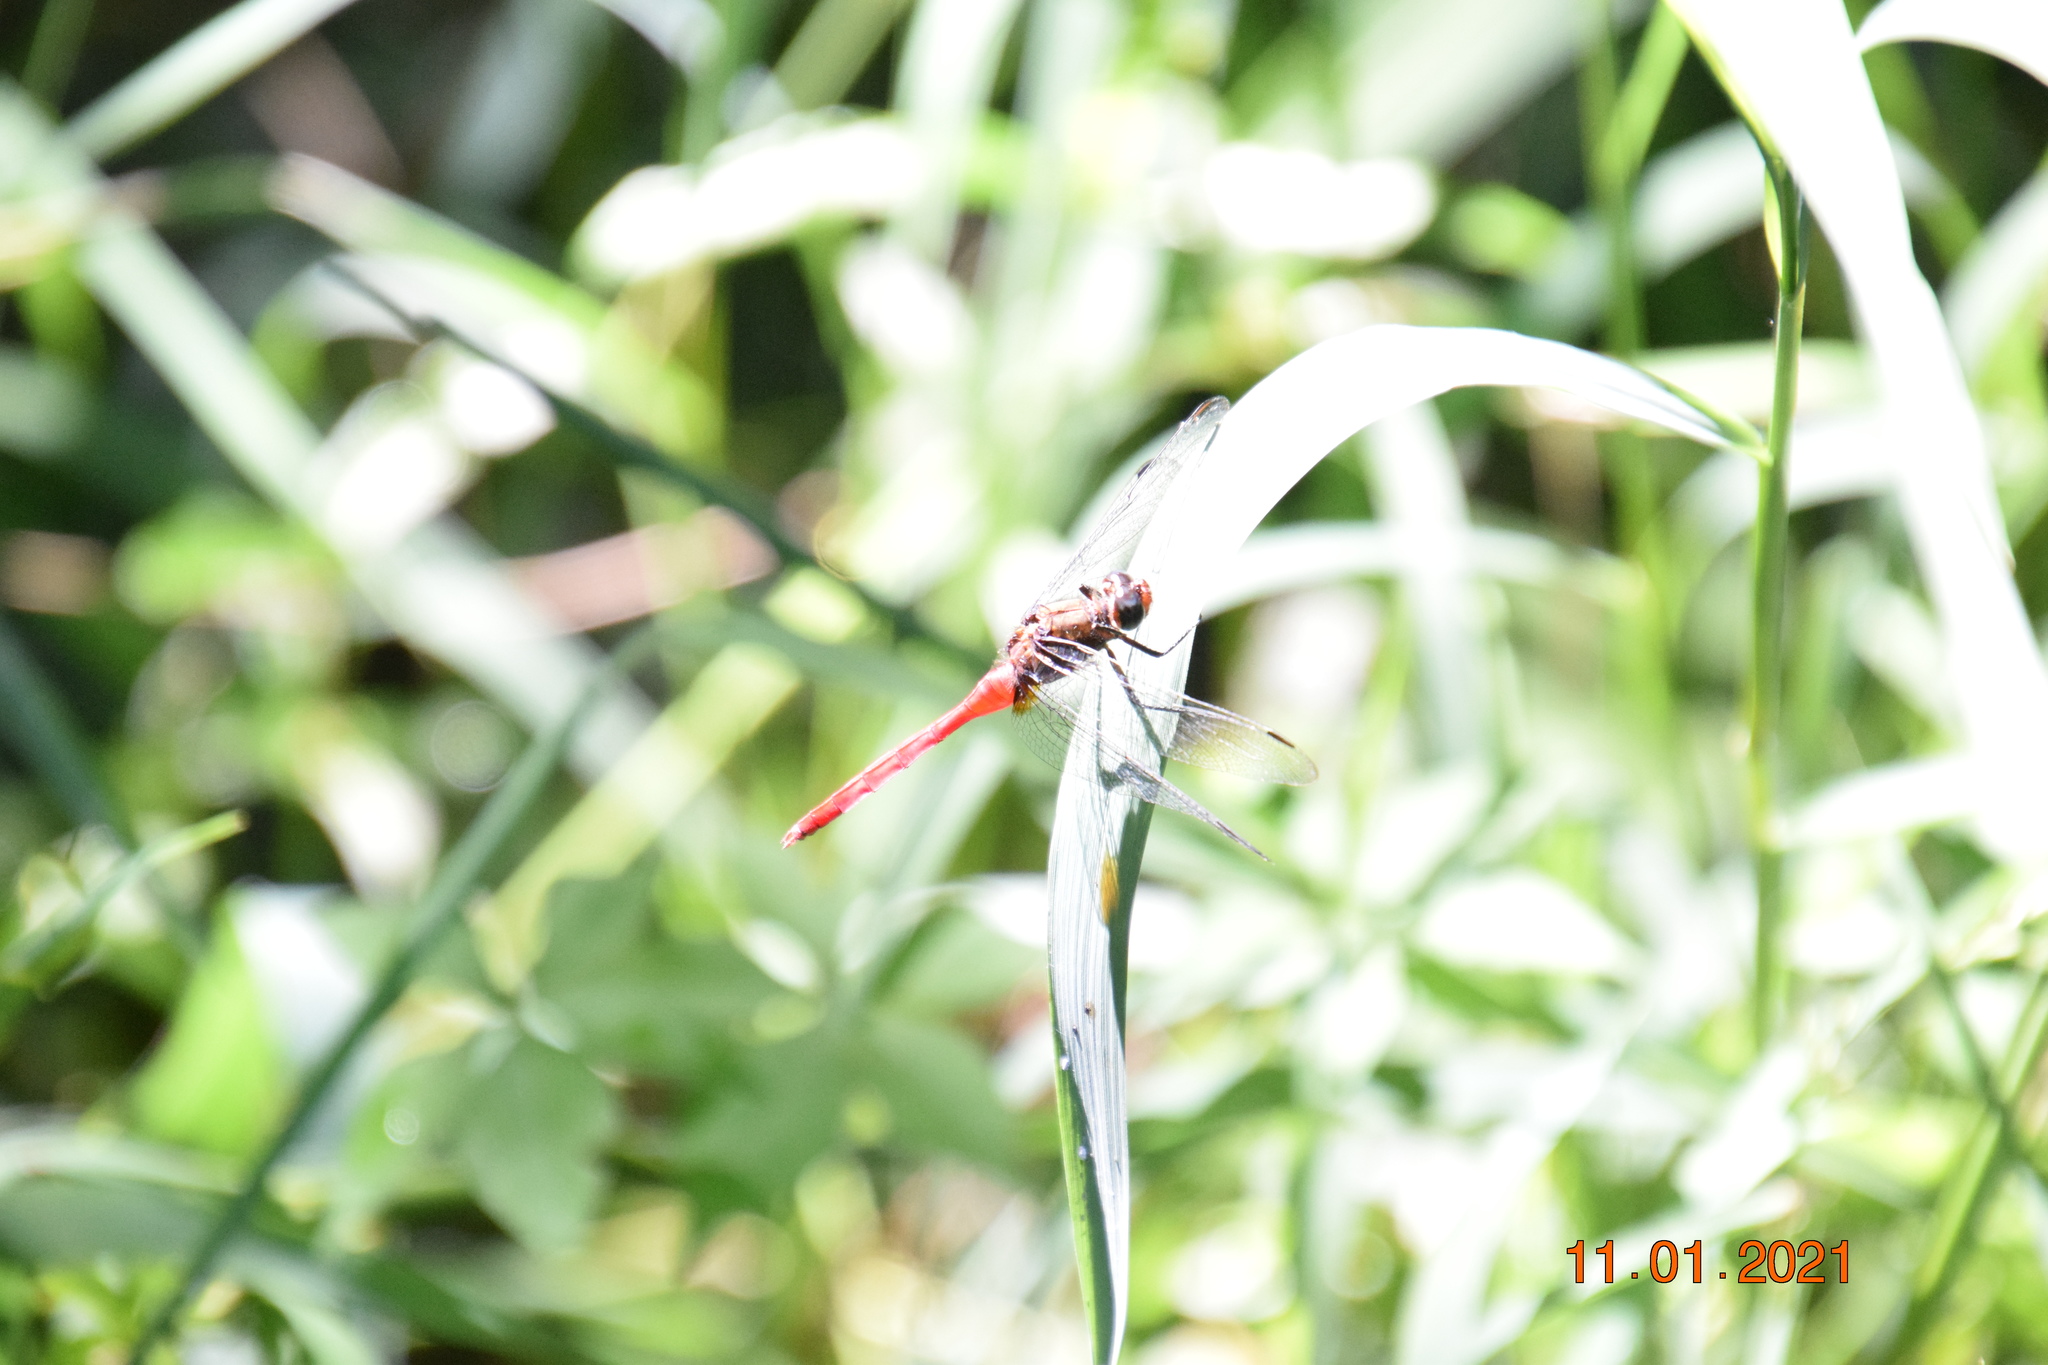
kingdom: Animalia
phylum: Arthropoda
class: Insecta
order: Odonata
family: Libellulidae
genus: Orthetrum
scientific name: Orthetrum villosovittatum
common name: Firery skimmer
